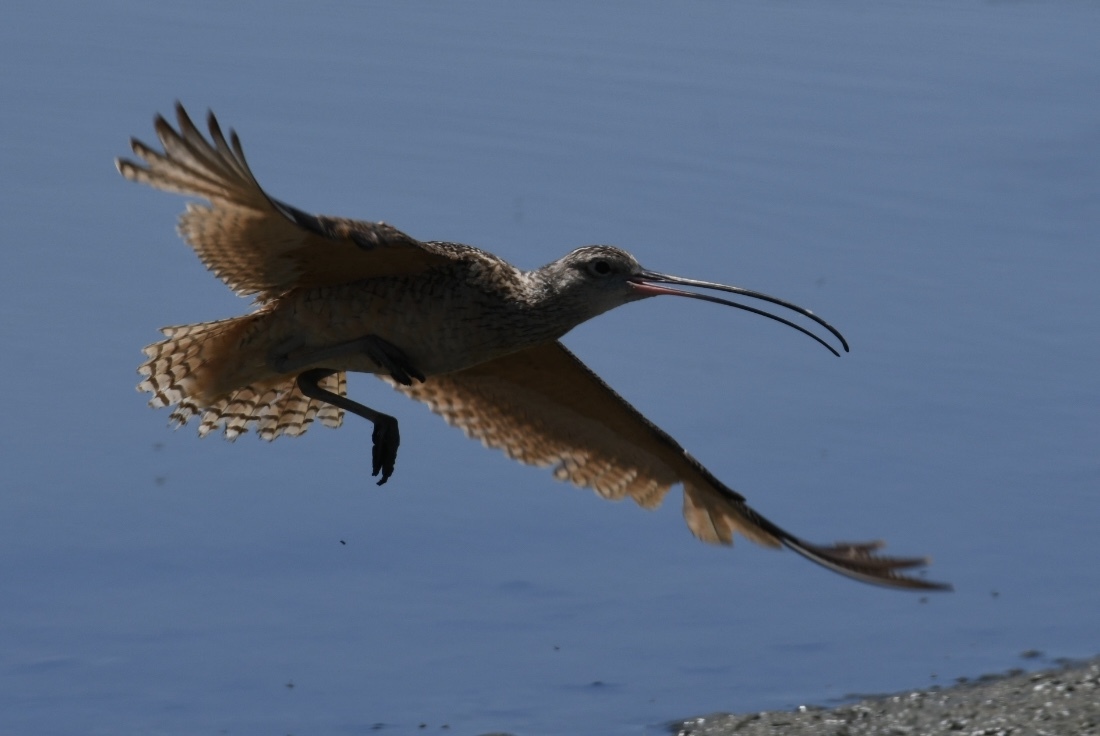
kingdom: Animalia
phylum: Chordata
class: Aves
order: Charadriiformes
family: Scolopacidae
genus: Numenius
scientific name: Numenius americanus
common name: Long-billed curlew
